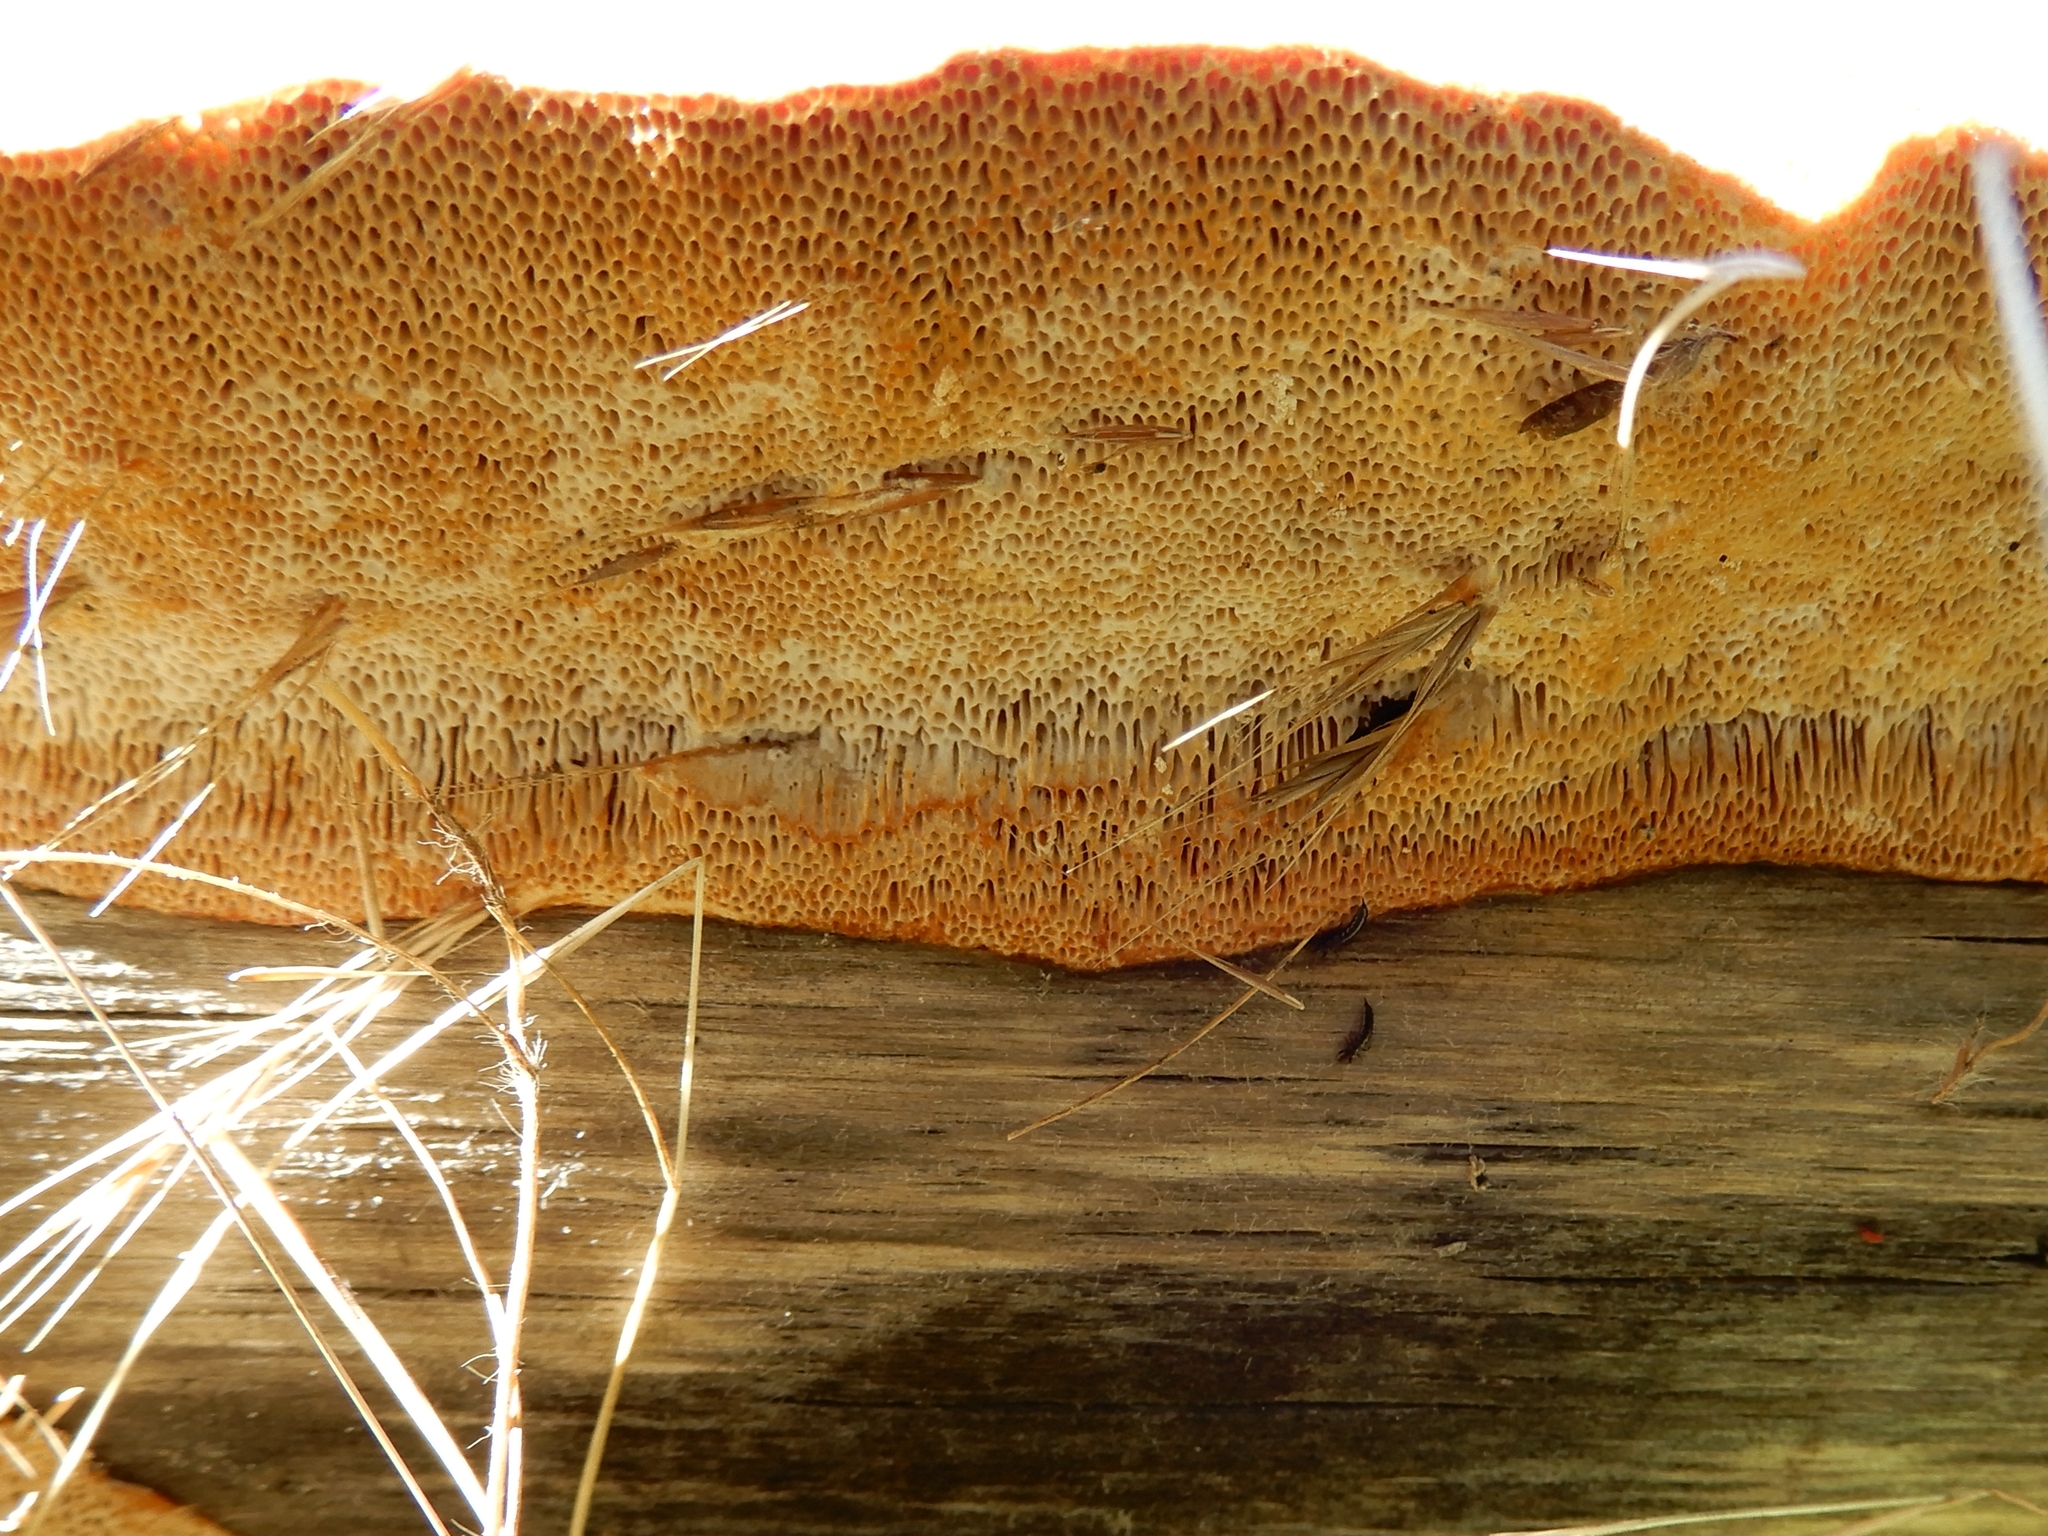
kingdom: Fungi
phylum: Basidiomycota
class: Agaricomycetes
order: Gloeophyllales
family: Gloeophyllaceae
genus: Gloeophyllum
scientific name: Gloeophyllum trabeum
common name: Timber mazegill
